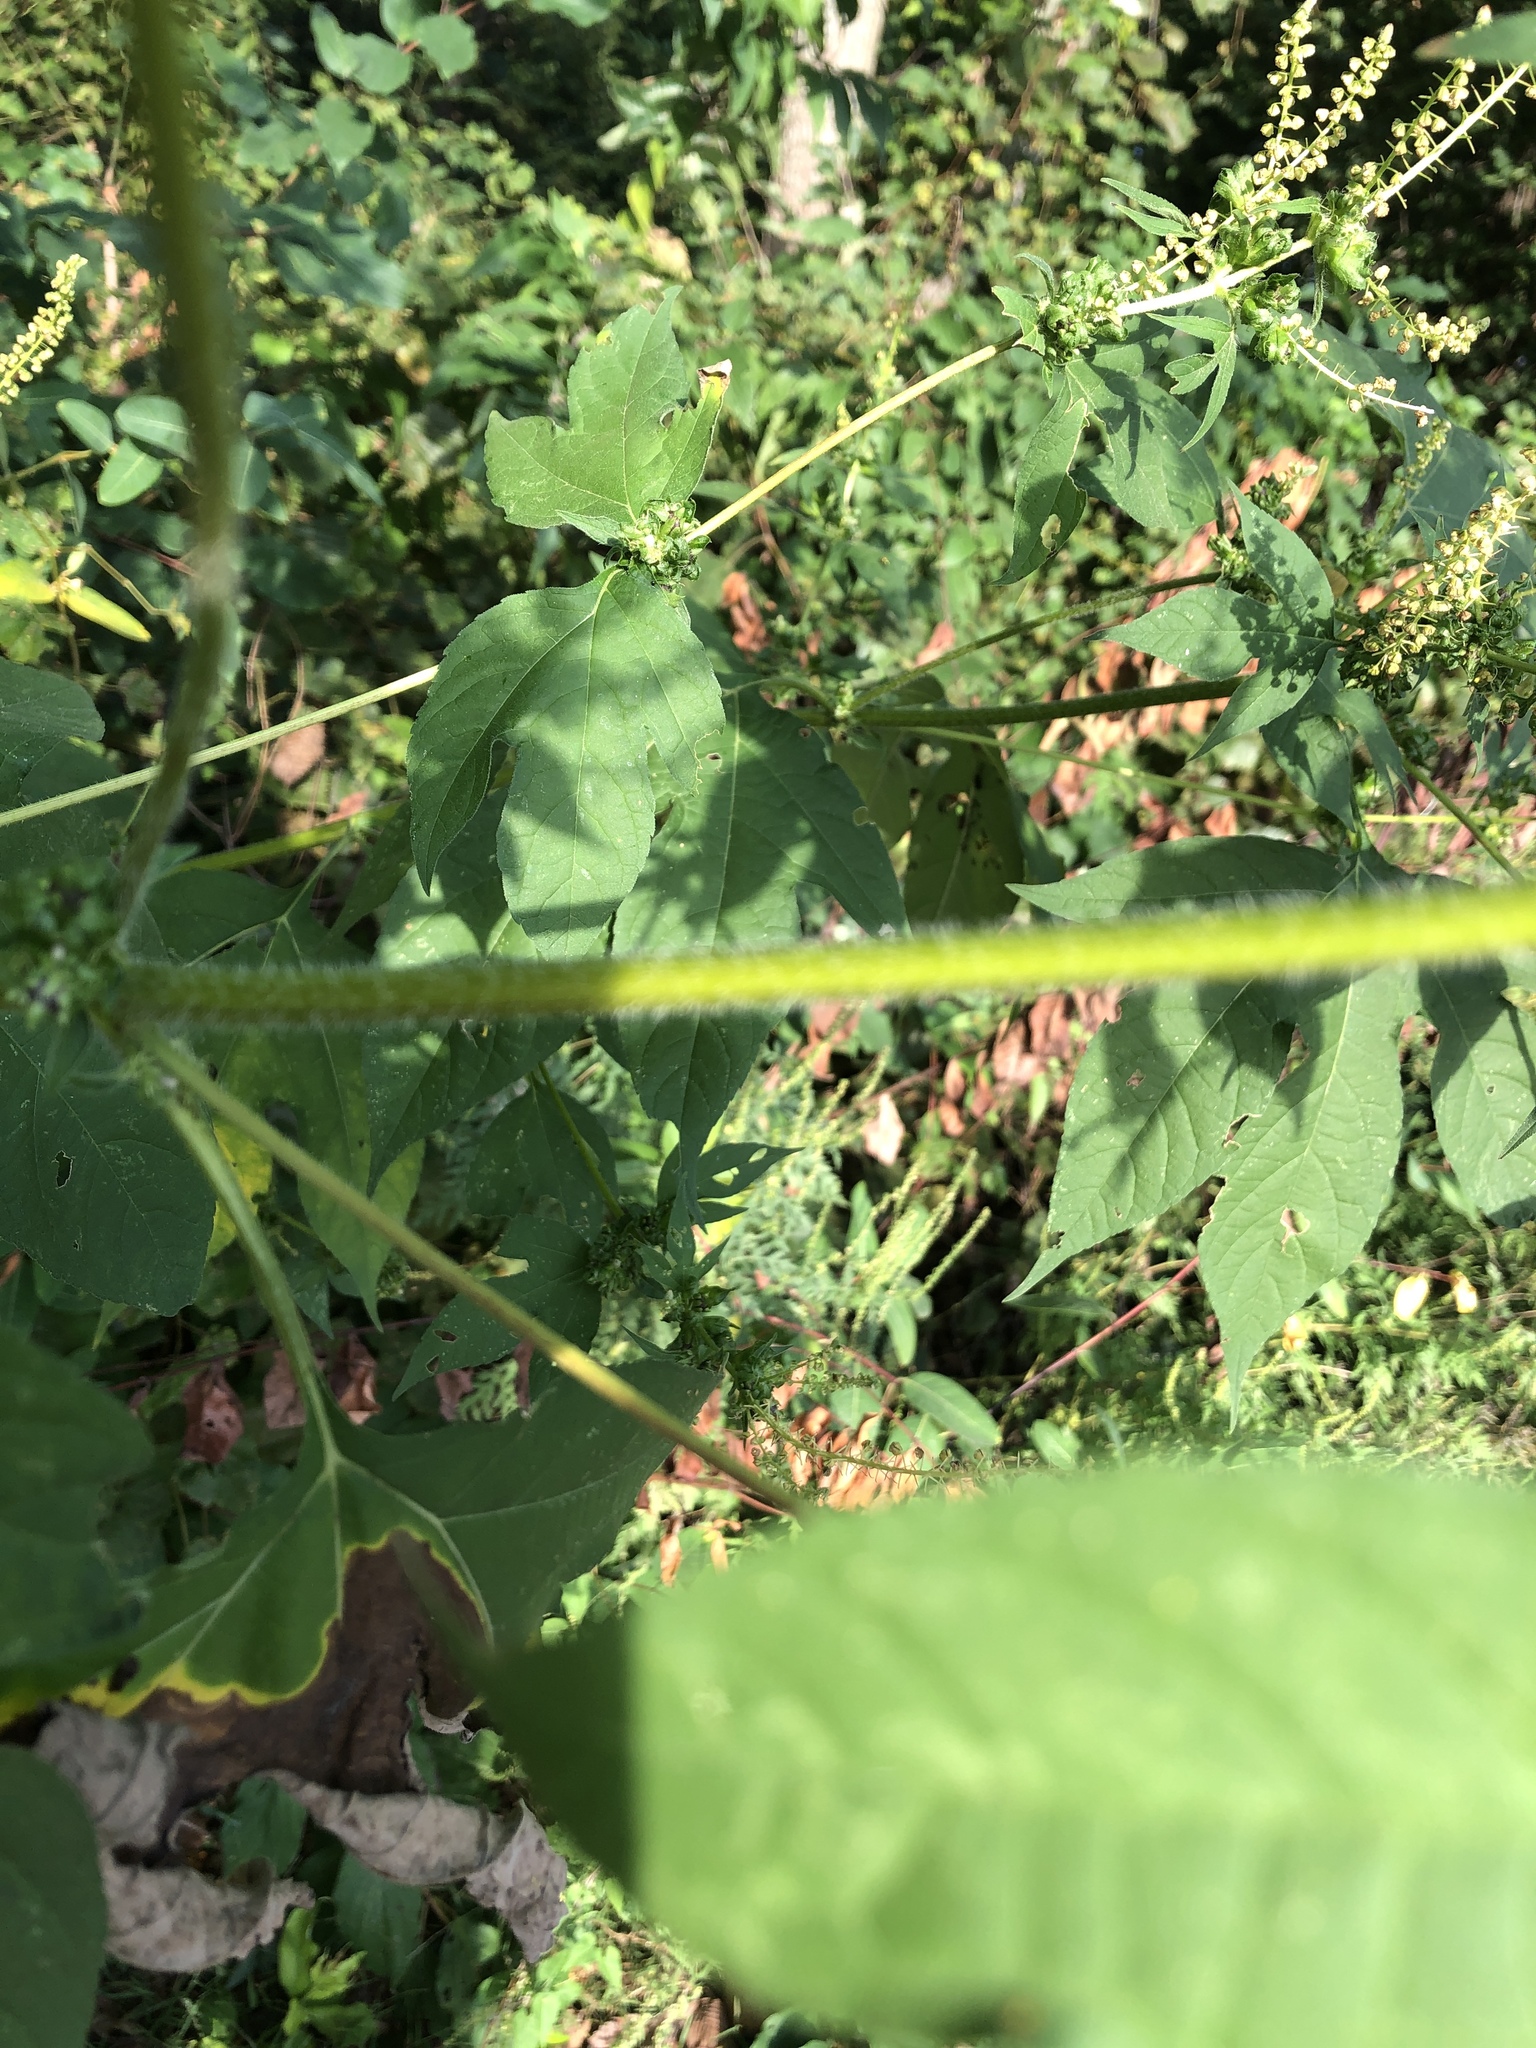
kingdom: Plantae
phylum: Tracheophyta
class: Magnoliopsida
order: Asterales
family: Asteraceae
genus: Ambrosia
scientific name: Ambrosia trifida
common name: Giant ragweed
